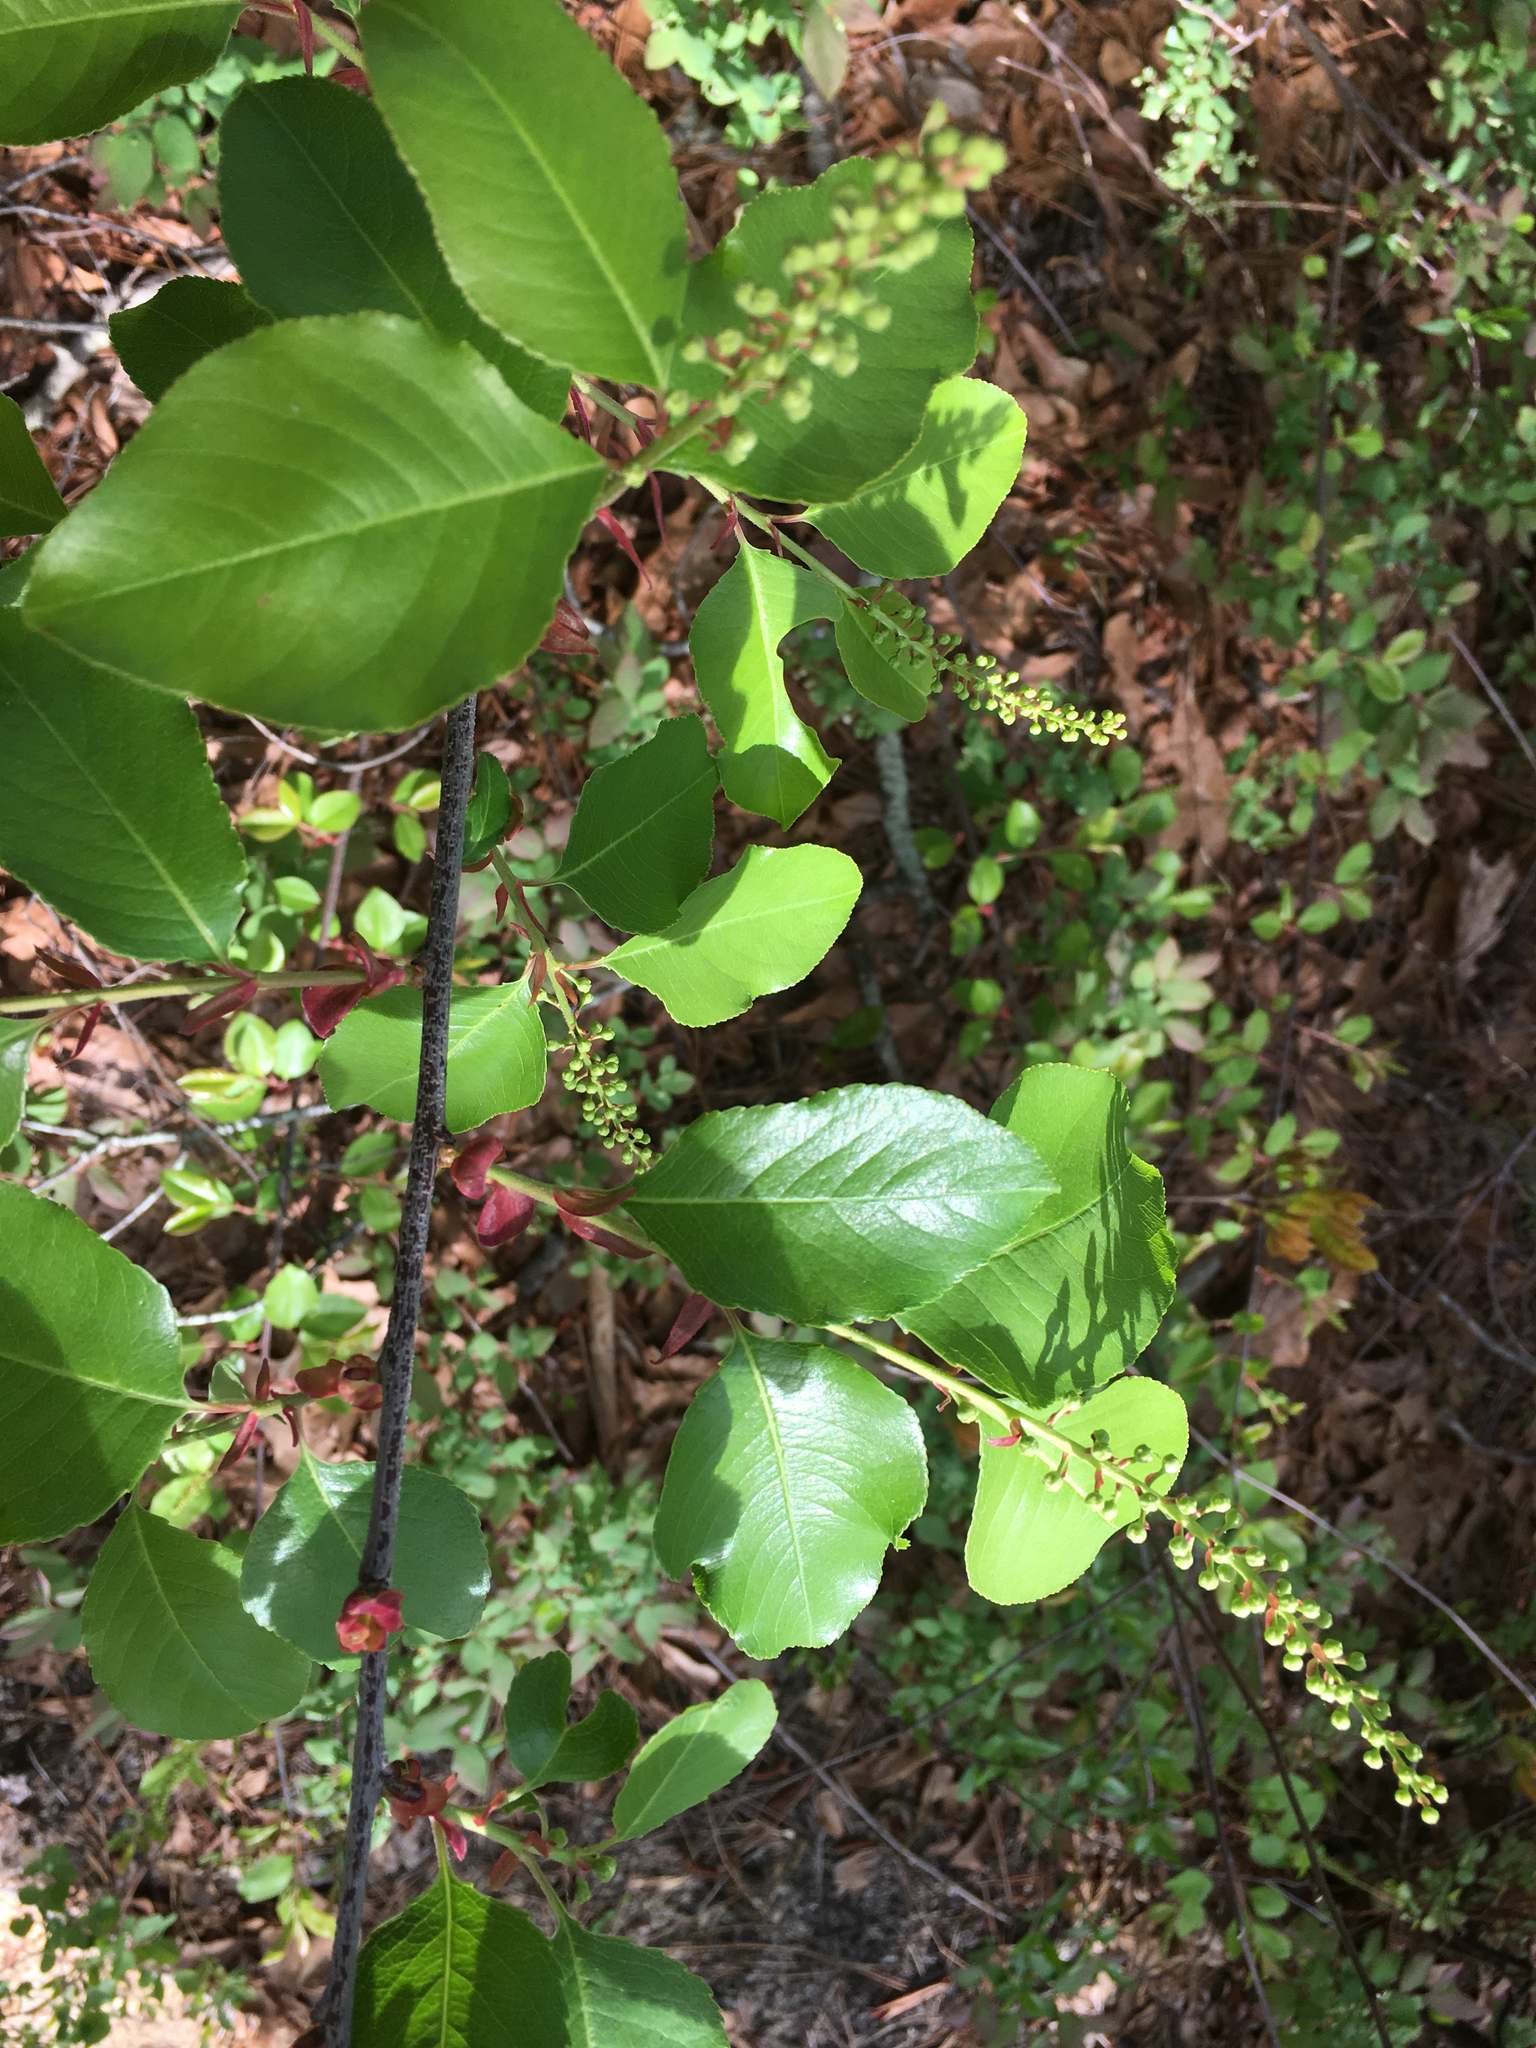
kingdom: Plantae
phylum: Tracheophyta
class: Magnoliopsida
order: Rosales
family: Rosaceae
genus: Prunus
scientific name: Prunus alabamensis
